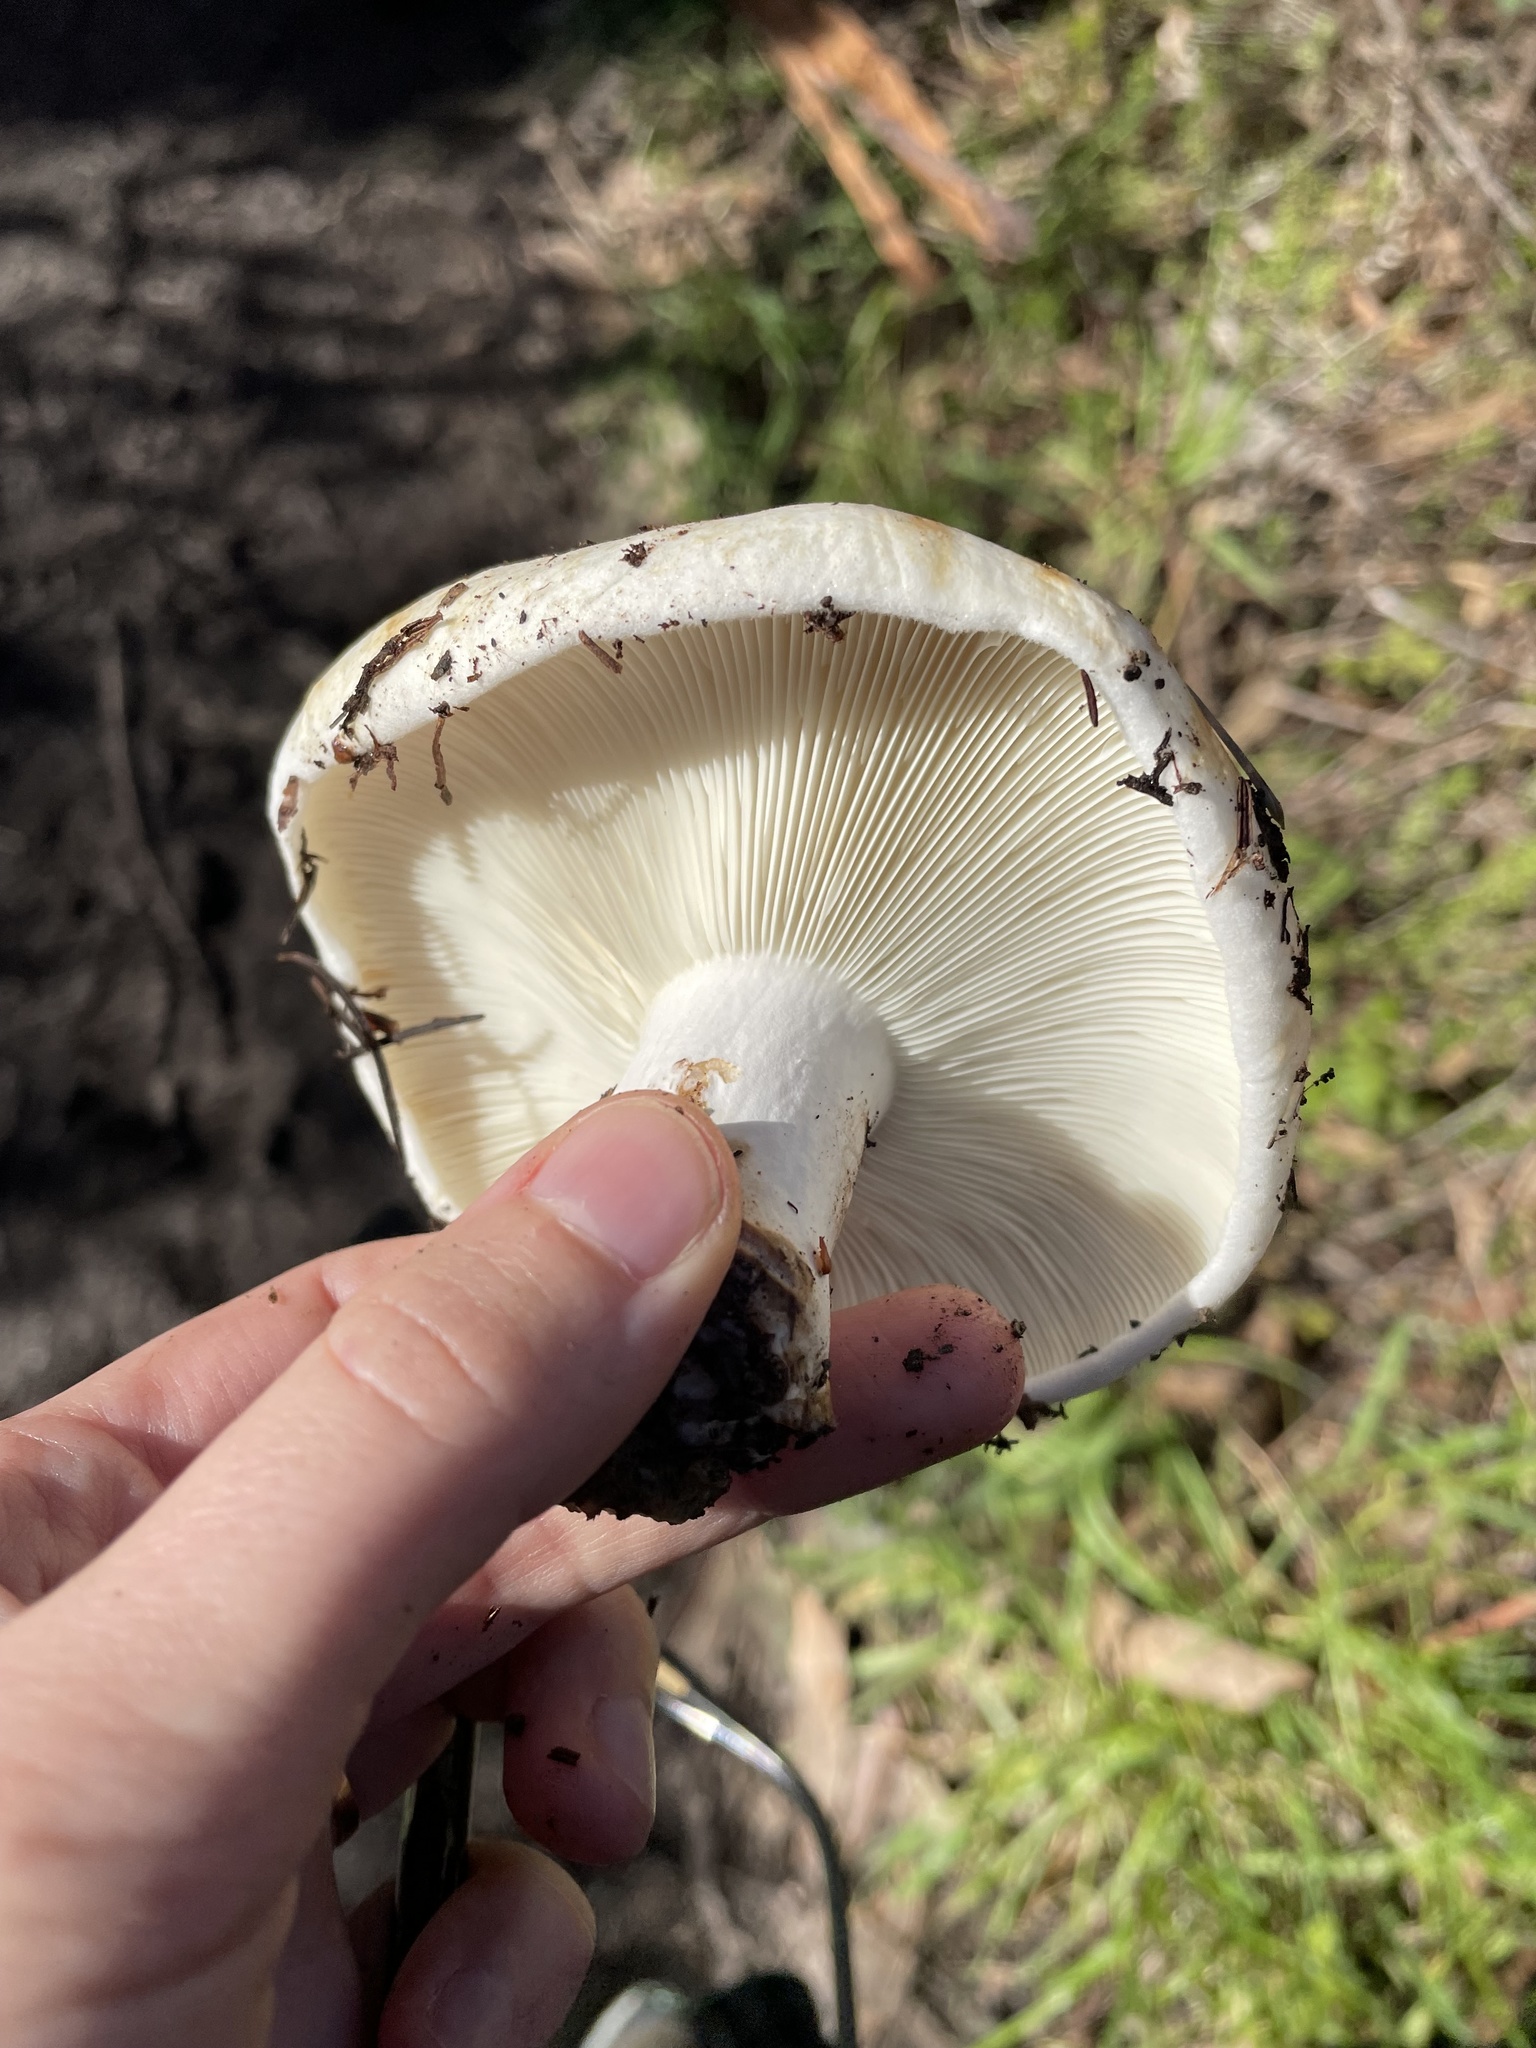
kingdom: Fungi
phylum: Basidiomycota
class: Agaricomycetes
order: Russulales
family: Russulaceae
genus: Russula
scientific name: Russula brevipes
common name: Short-stemmed russula
